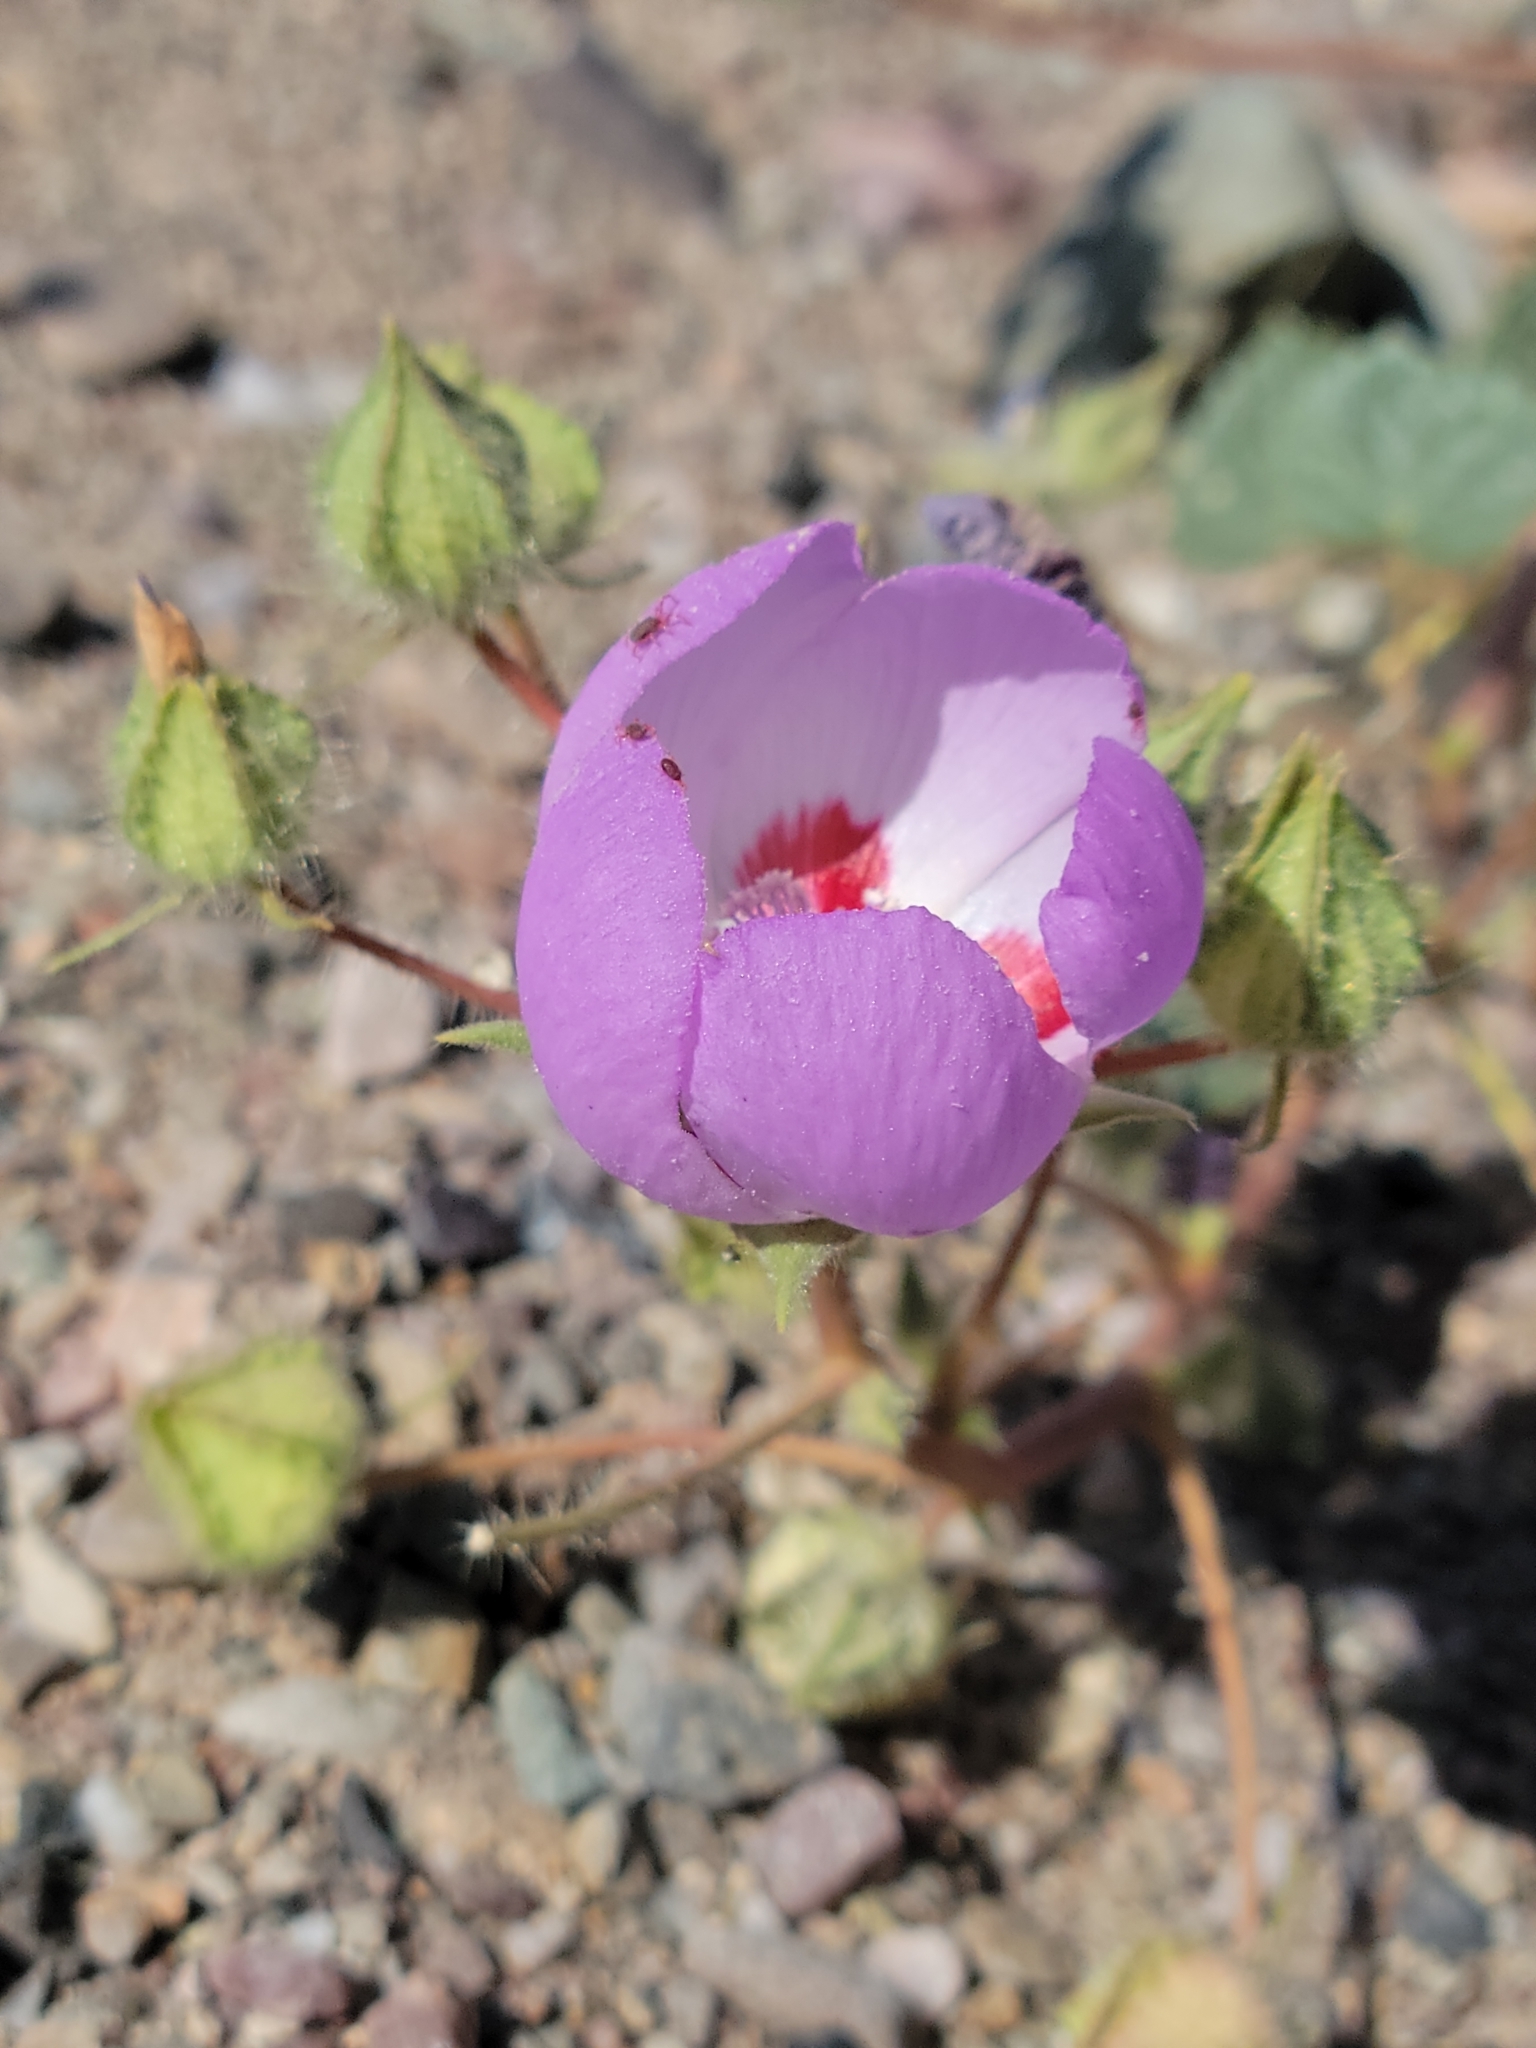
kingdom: Plantae
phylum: Tracheophyta
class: Magnoliopsida
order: Malvales
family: Malvaceae
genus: Eremalche
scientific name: Eremalche rotundifolia
